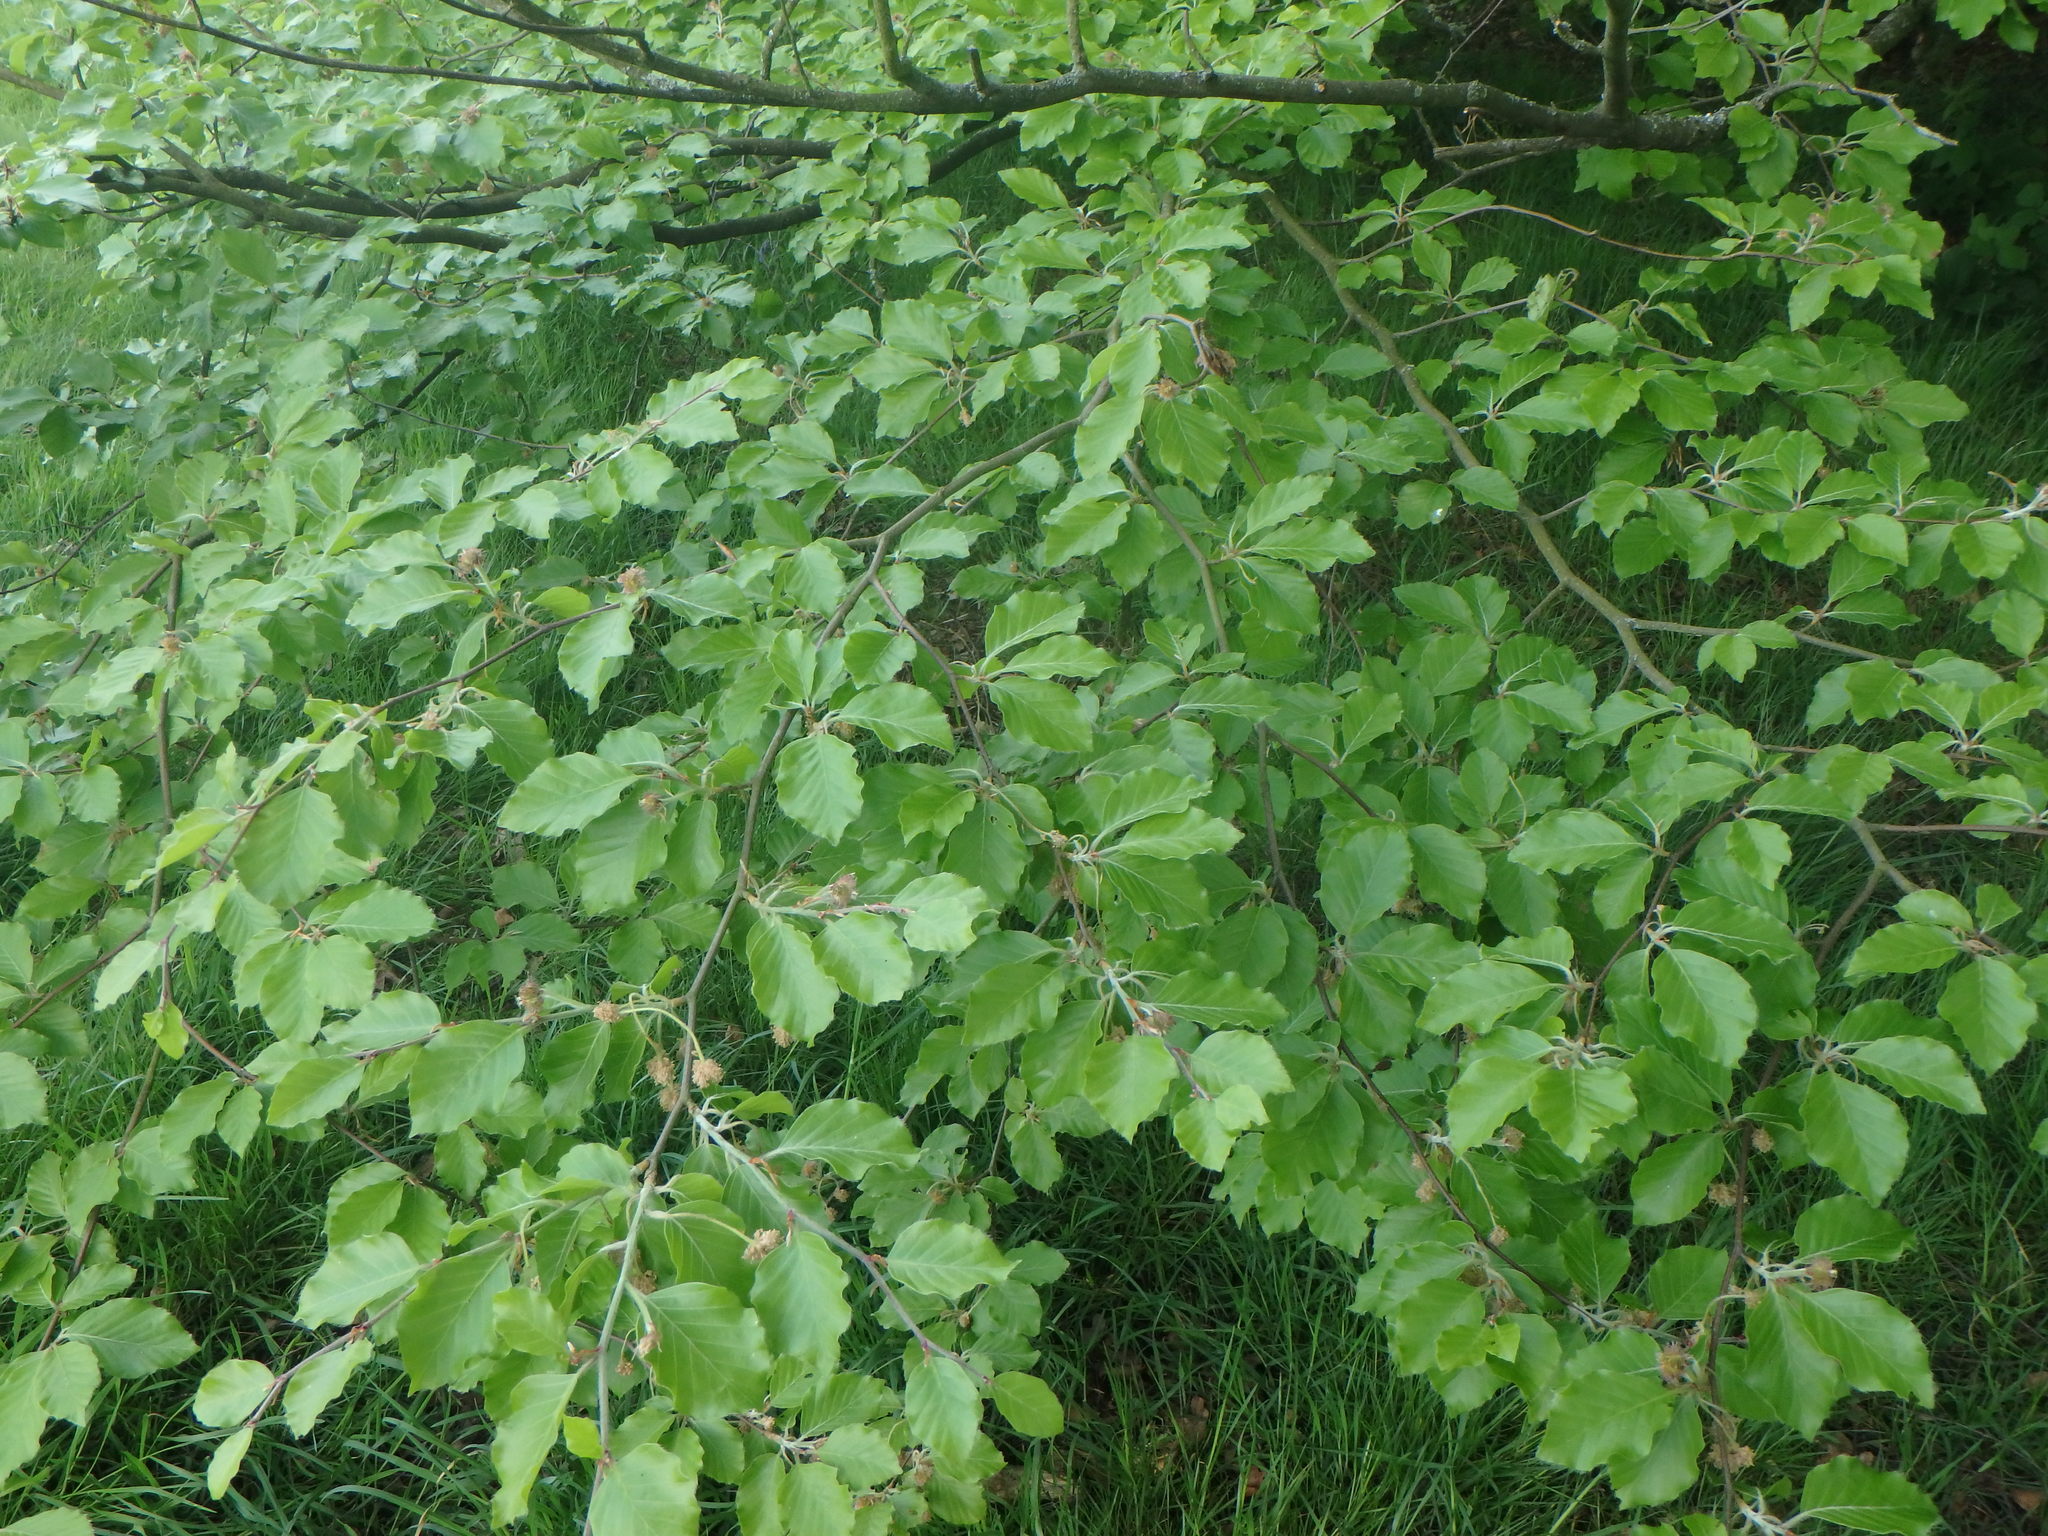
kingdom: Plantae
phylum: Tracheophyta
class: Magnoliopsida
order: Fagales
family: Fagaceae
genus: Fagus
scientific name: Fagus sylvatica
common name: Beech
